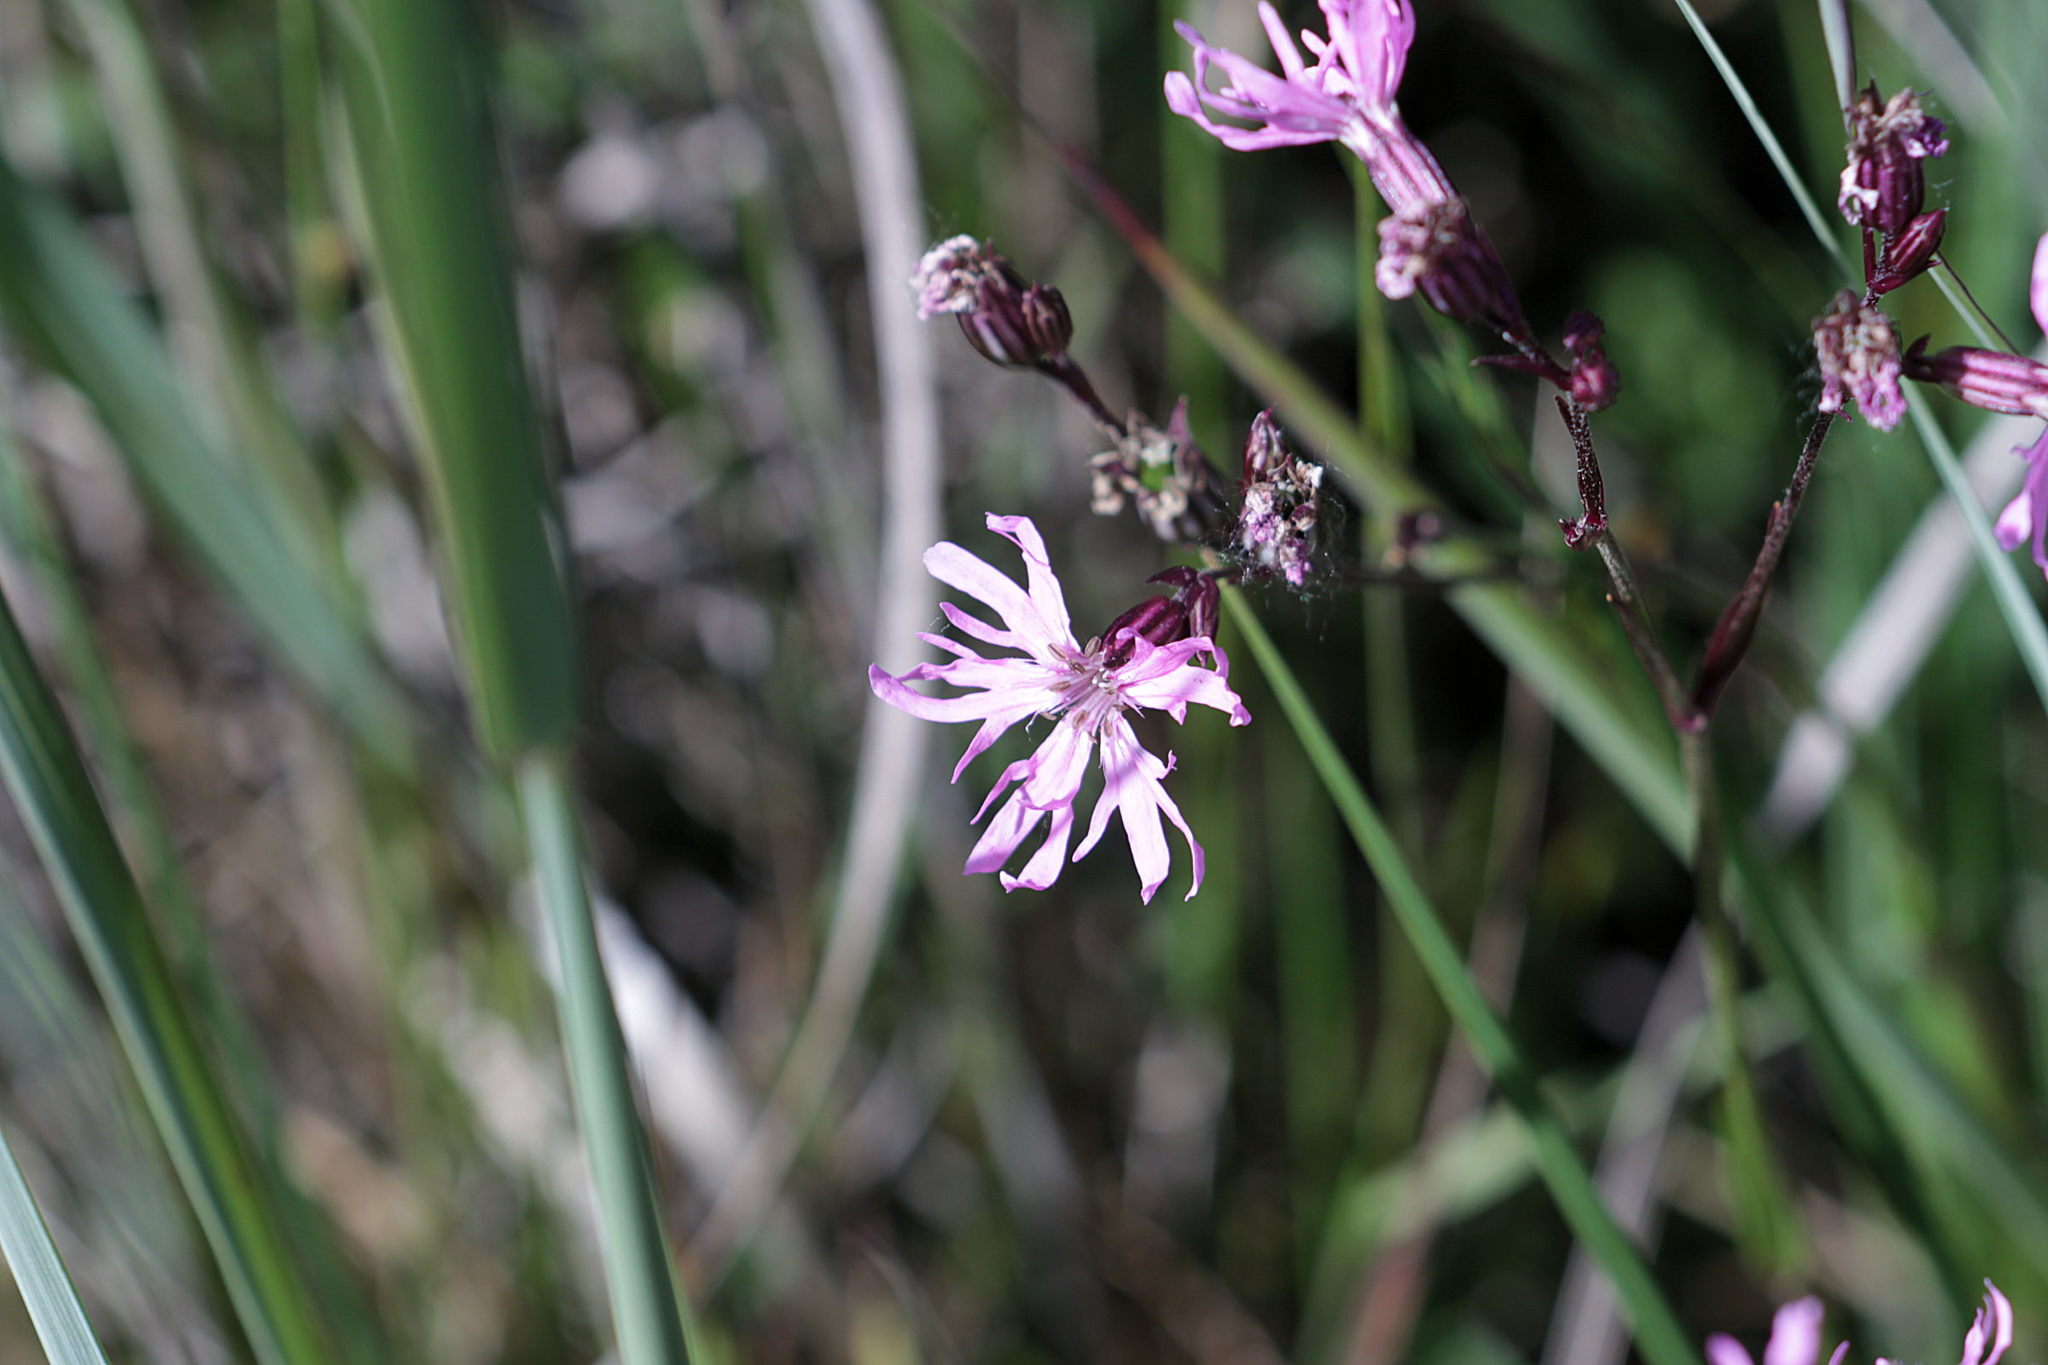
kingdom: Plantae
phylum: Tracheophyta
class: Magnoliopsida
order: Caryophyllales
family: Caryophyllaceae
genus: Silene
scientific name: Silene flos-cuculi
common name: Ragged-robin
